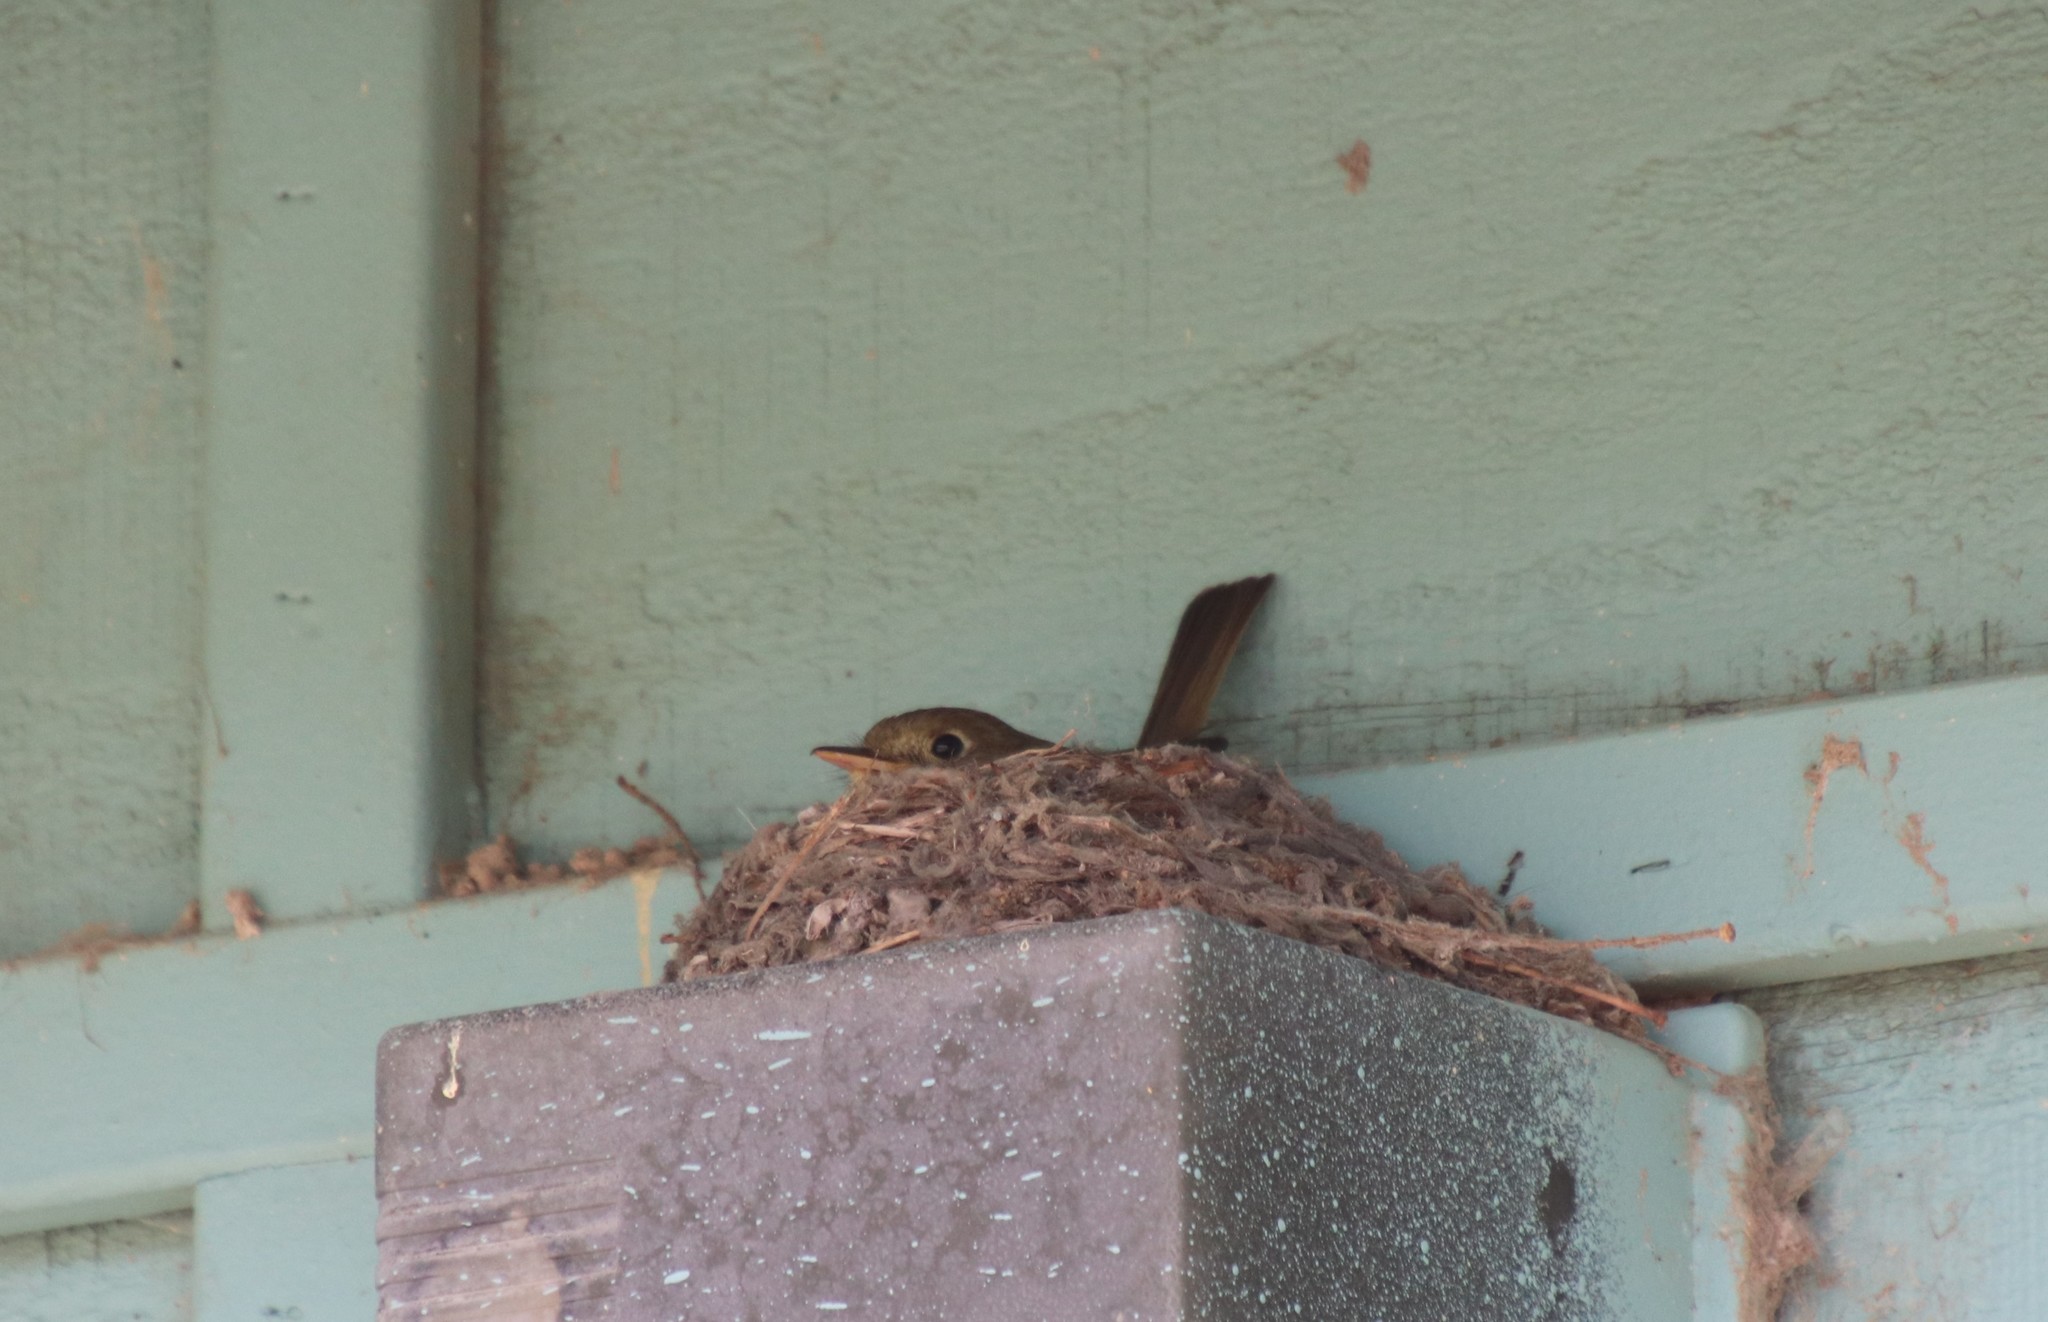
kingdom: Animalia
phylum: Chordata
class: Aves
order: Passeriformes
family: Tyrannidae
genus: Empidonax
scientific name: Empidonax difficilis
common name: Pacific-slope flycatcher
